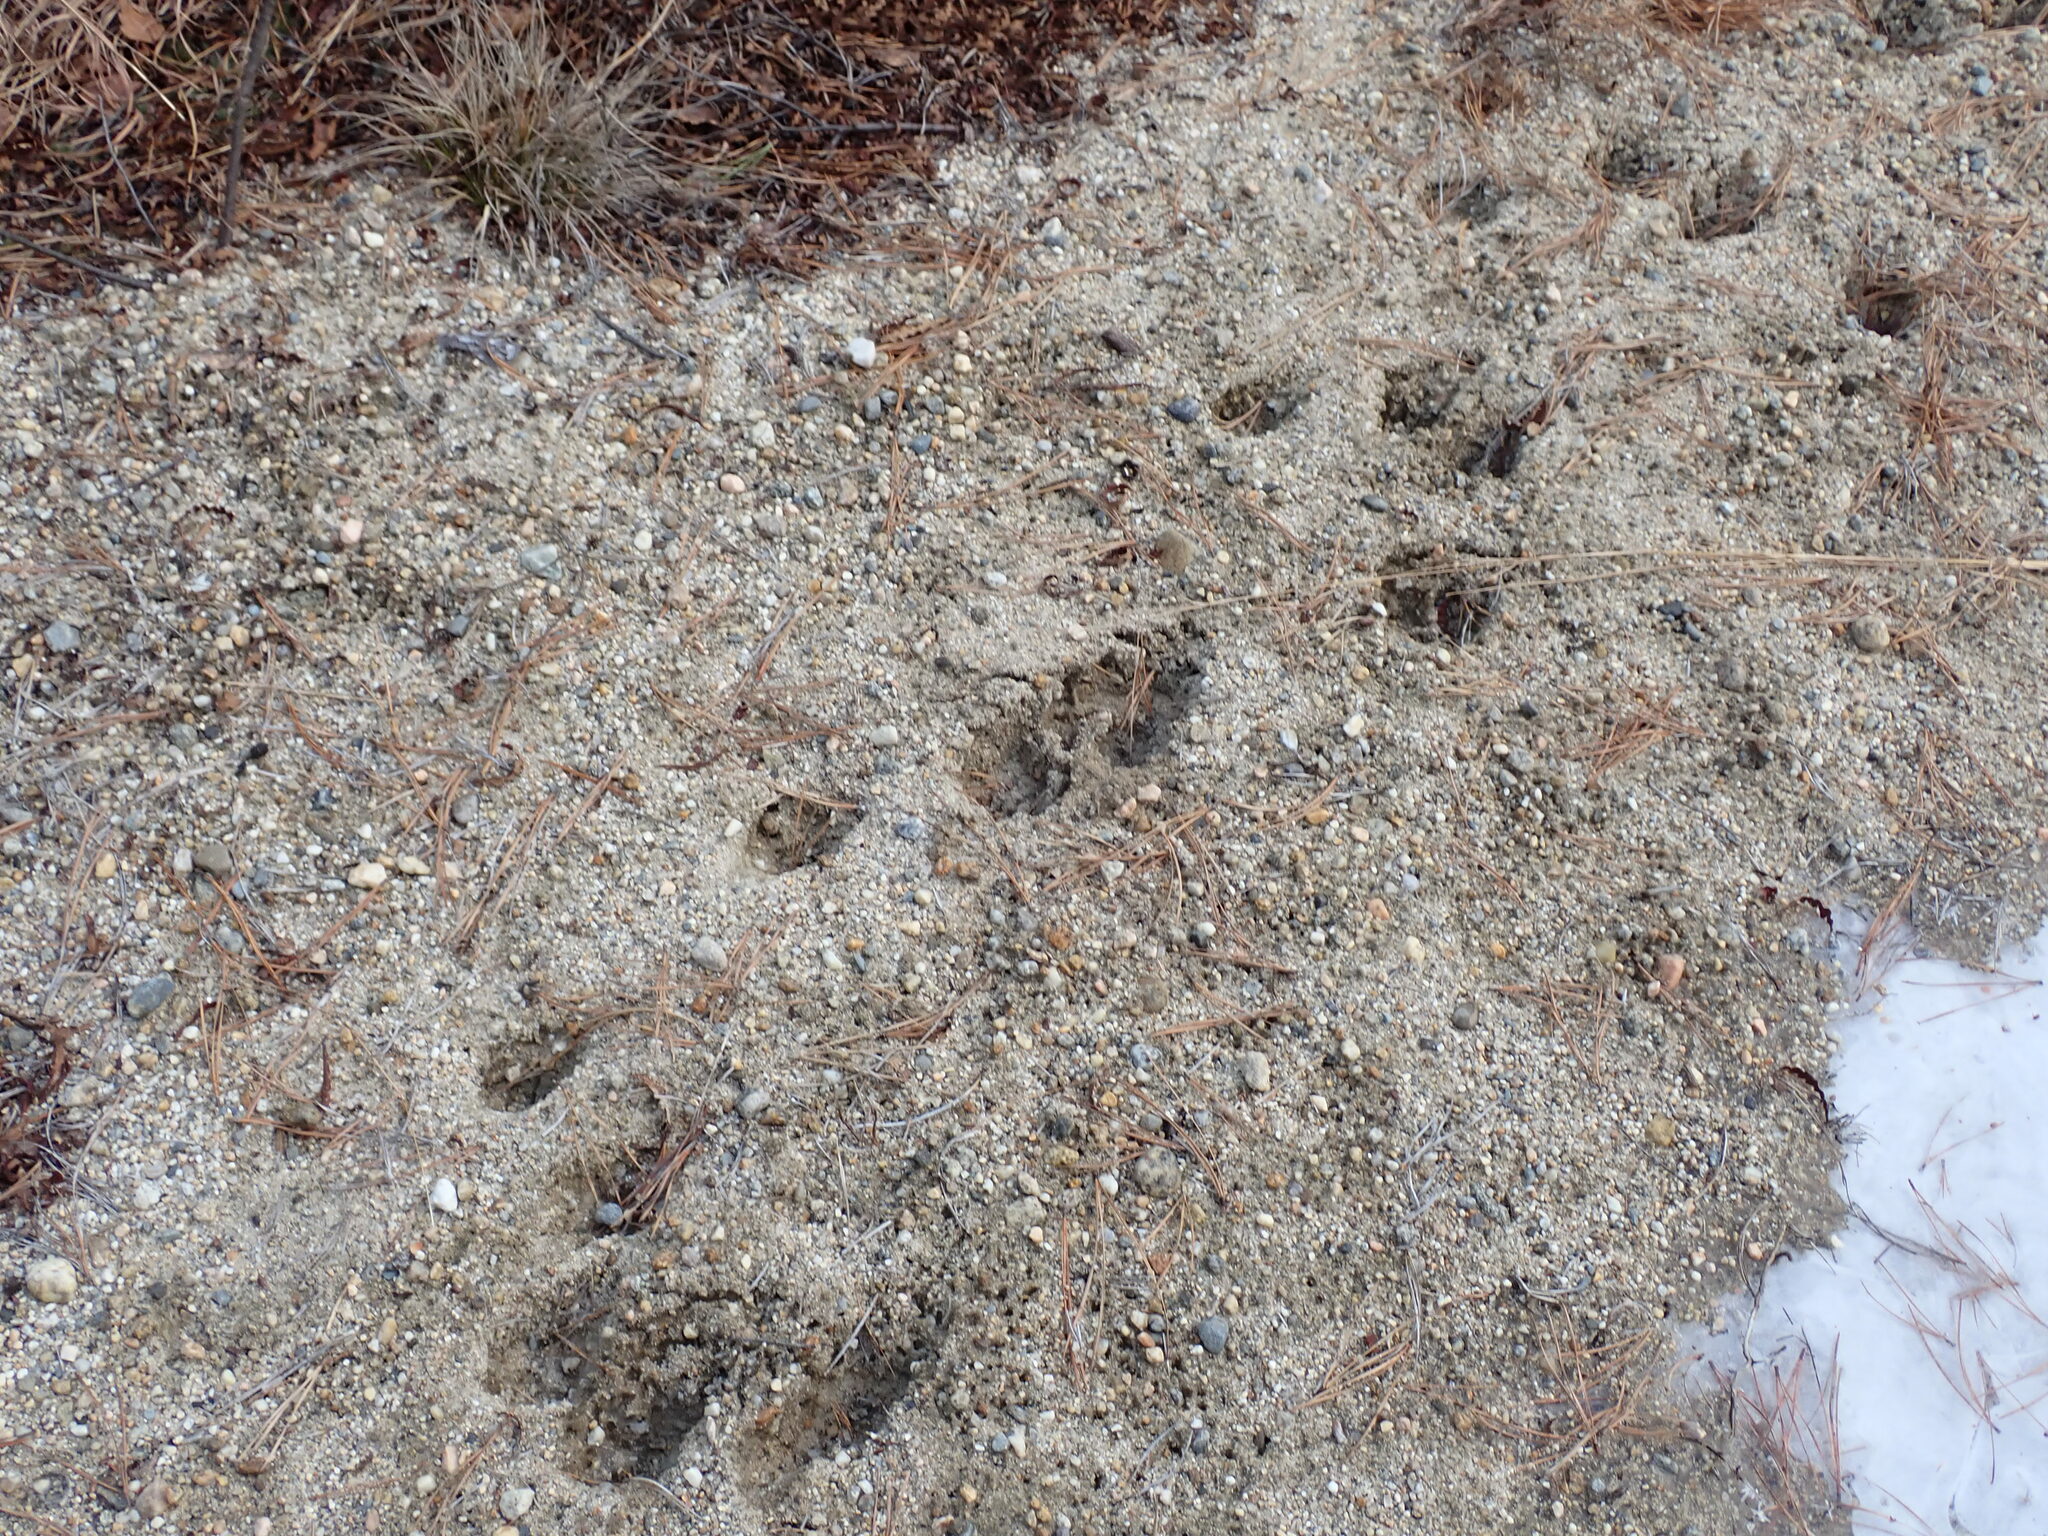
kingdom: Animalia
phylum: Chordata
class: Mammalia
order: Artiodactyla
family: Cervidae
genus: Odocoileus
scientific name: Odocoileus virginianus
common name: White-tailed deer
